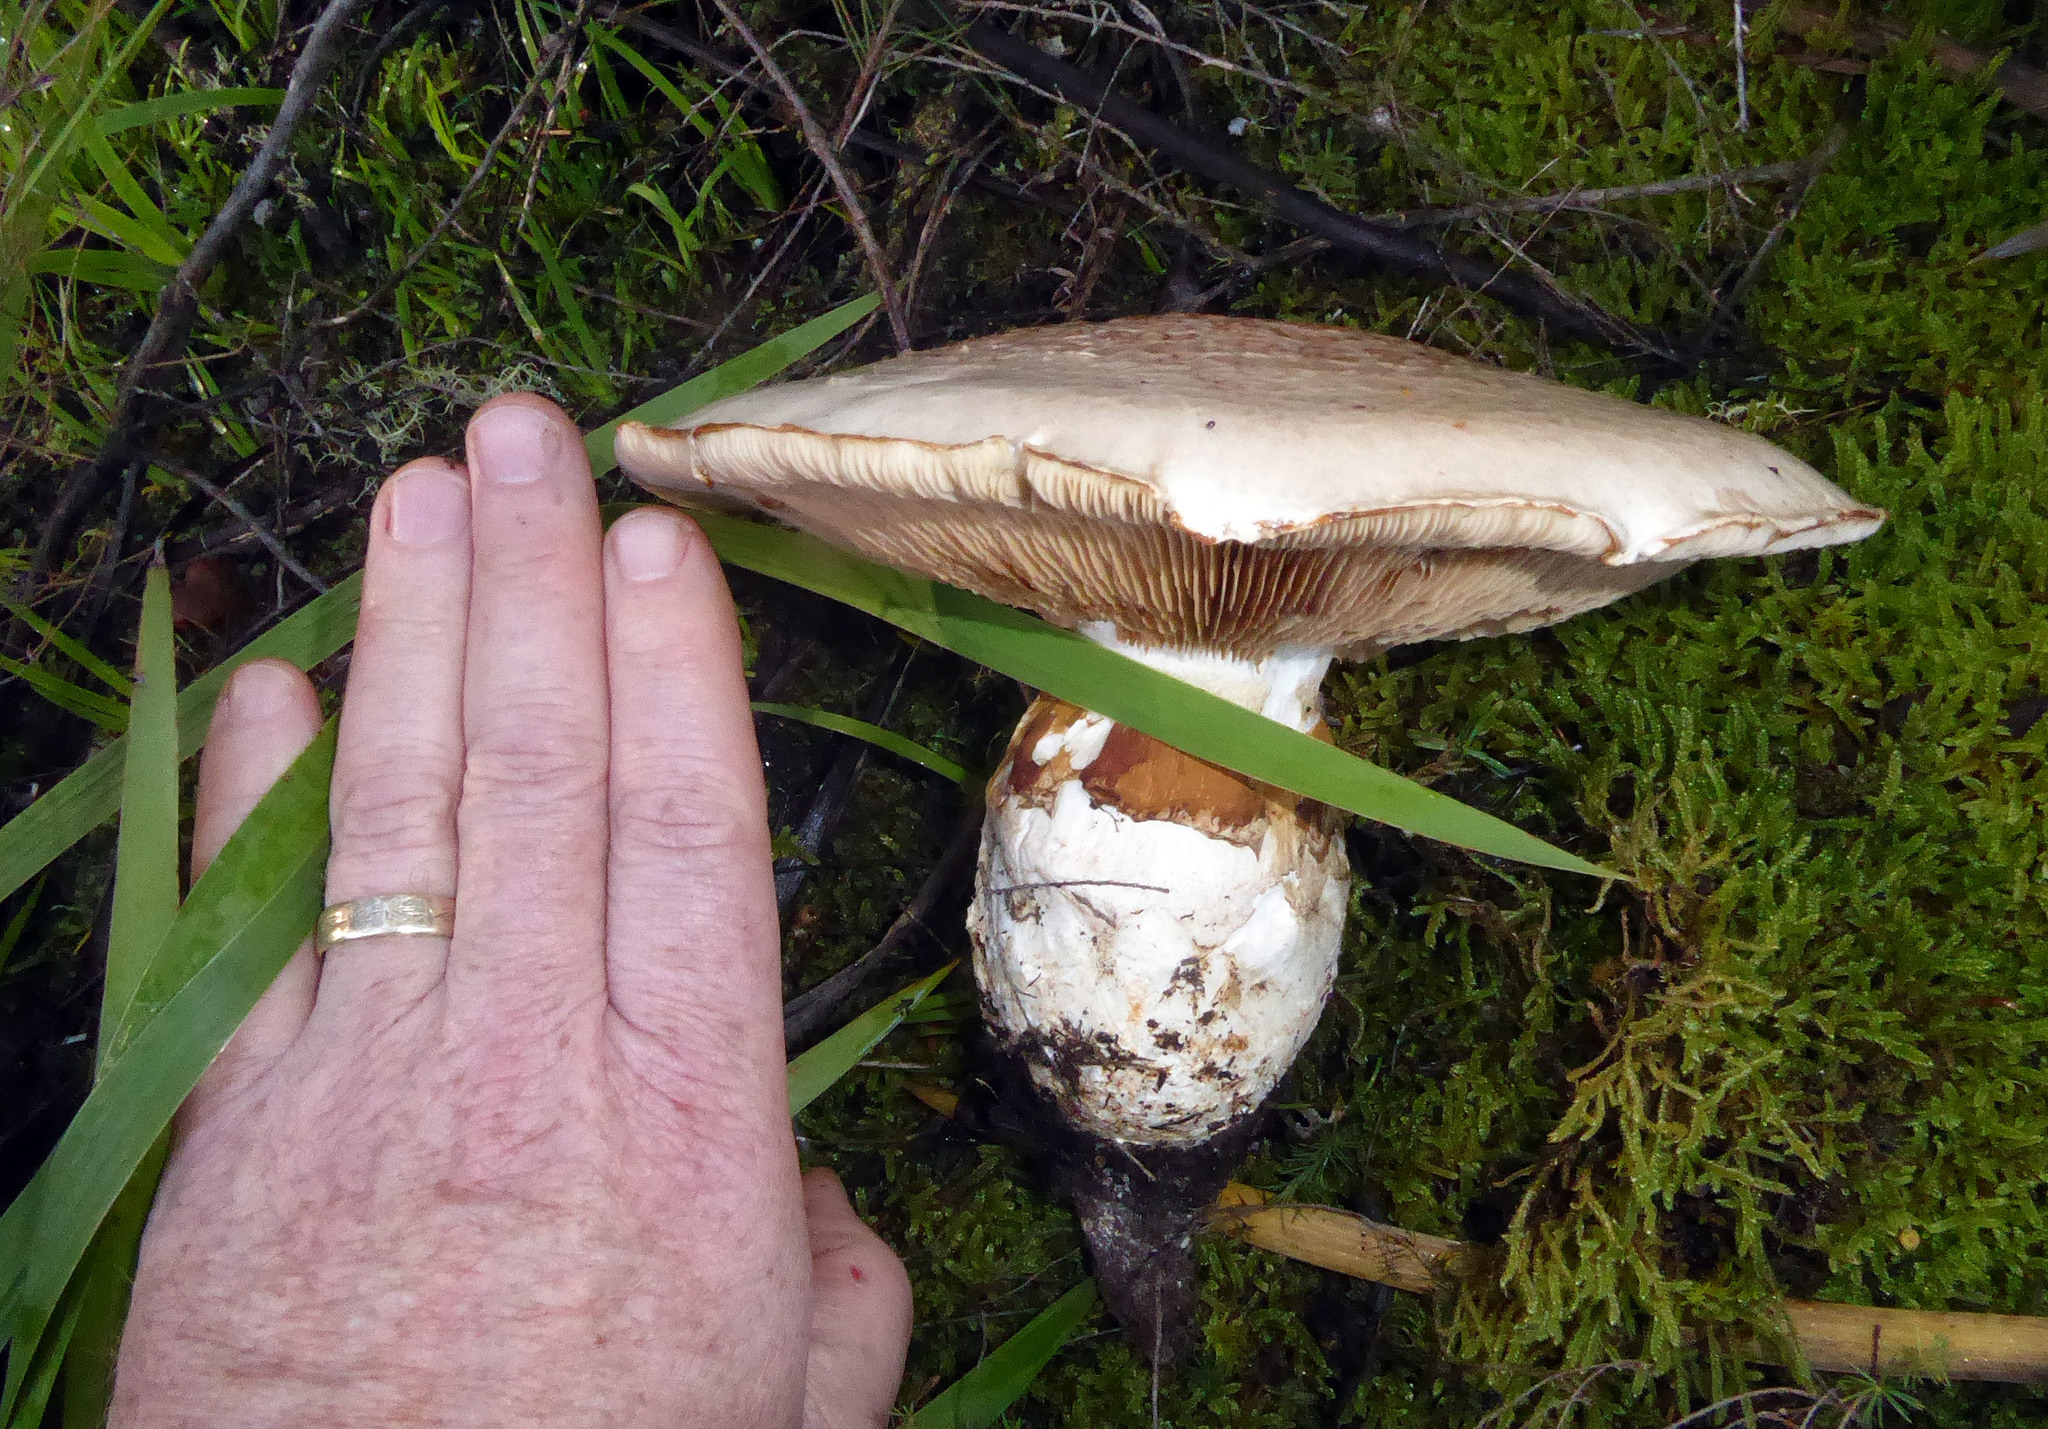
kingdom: Fungi
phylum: Basidiomycota
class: Agaricomycetes
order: Agaricales
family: Hymenogastraceae
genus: Hebeloma
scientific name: Hebeloma victoriense
